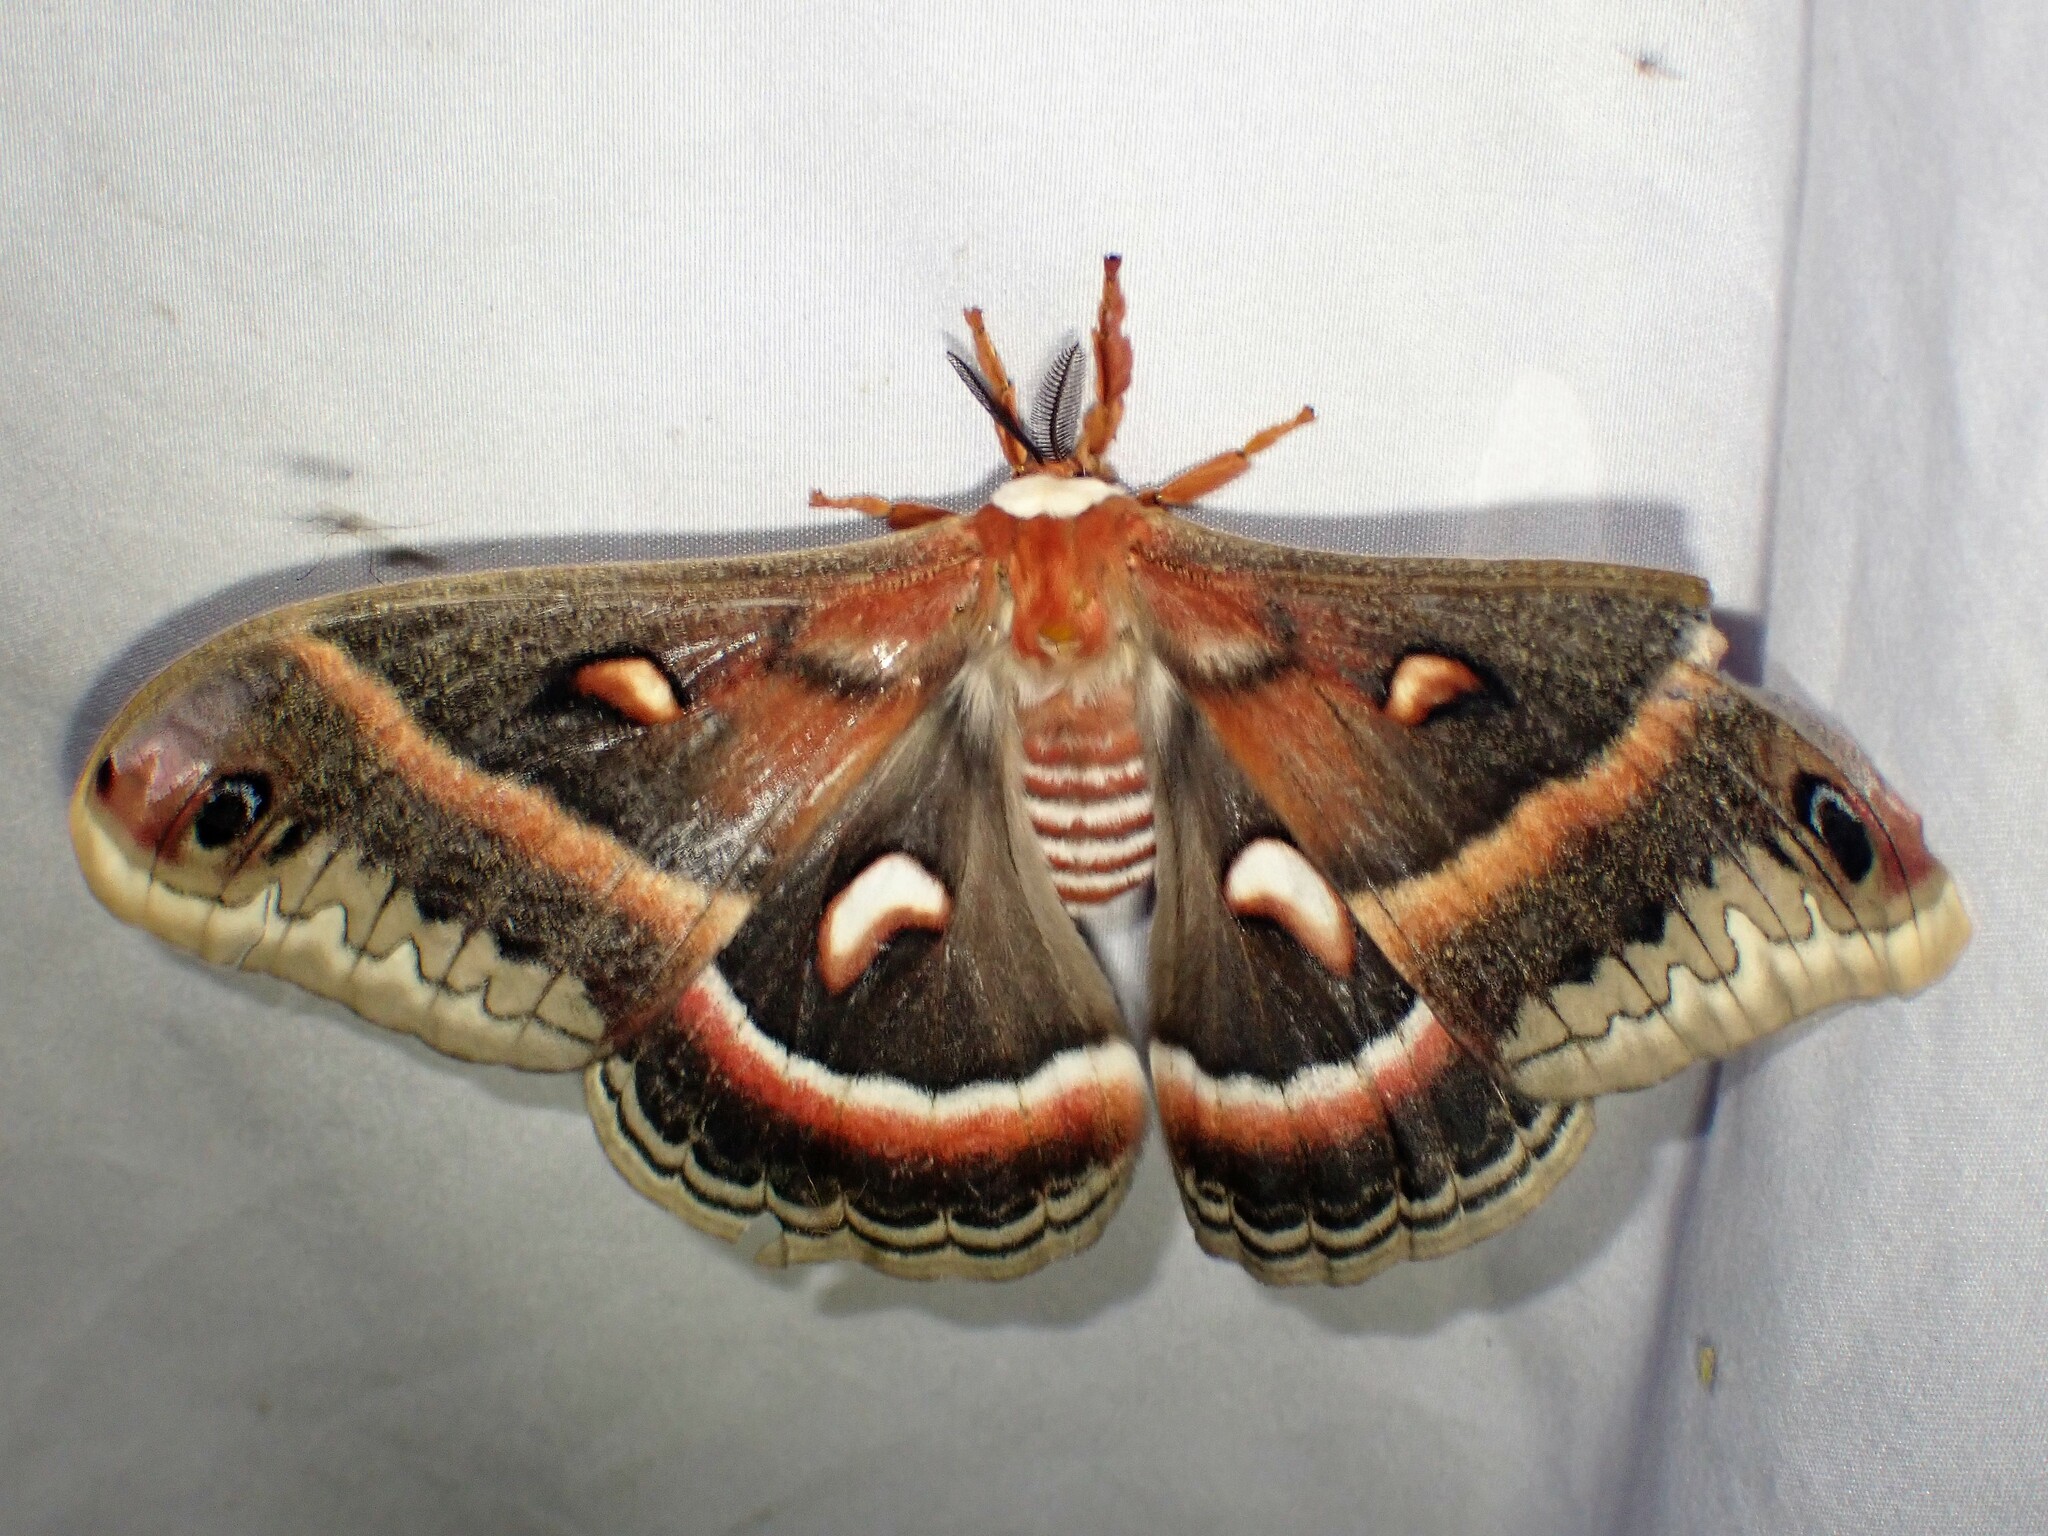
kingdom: Animalia
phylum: Arthropoda
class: Insecta
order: Lepidoptera
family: Saturniidae
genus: Hyalophora
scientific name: Hyalophora cecropia
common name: Cecropia silkmoth
